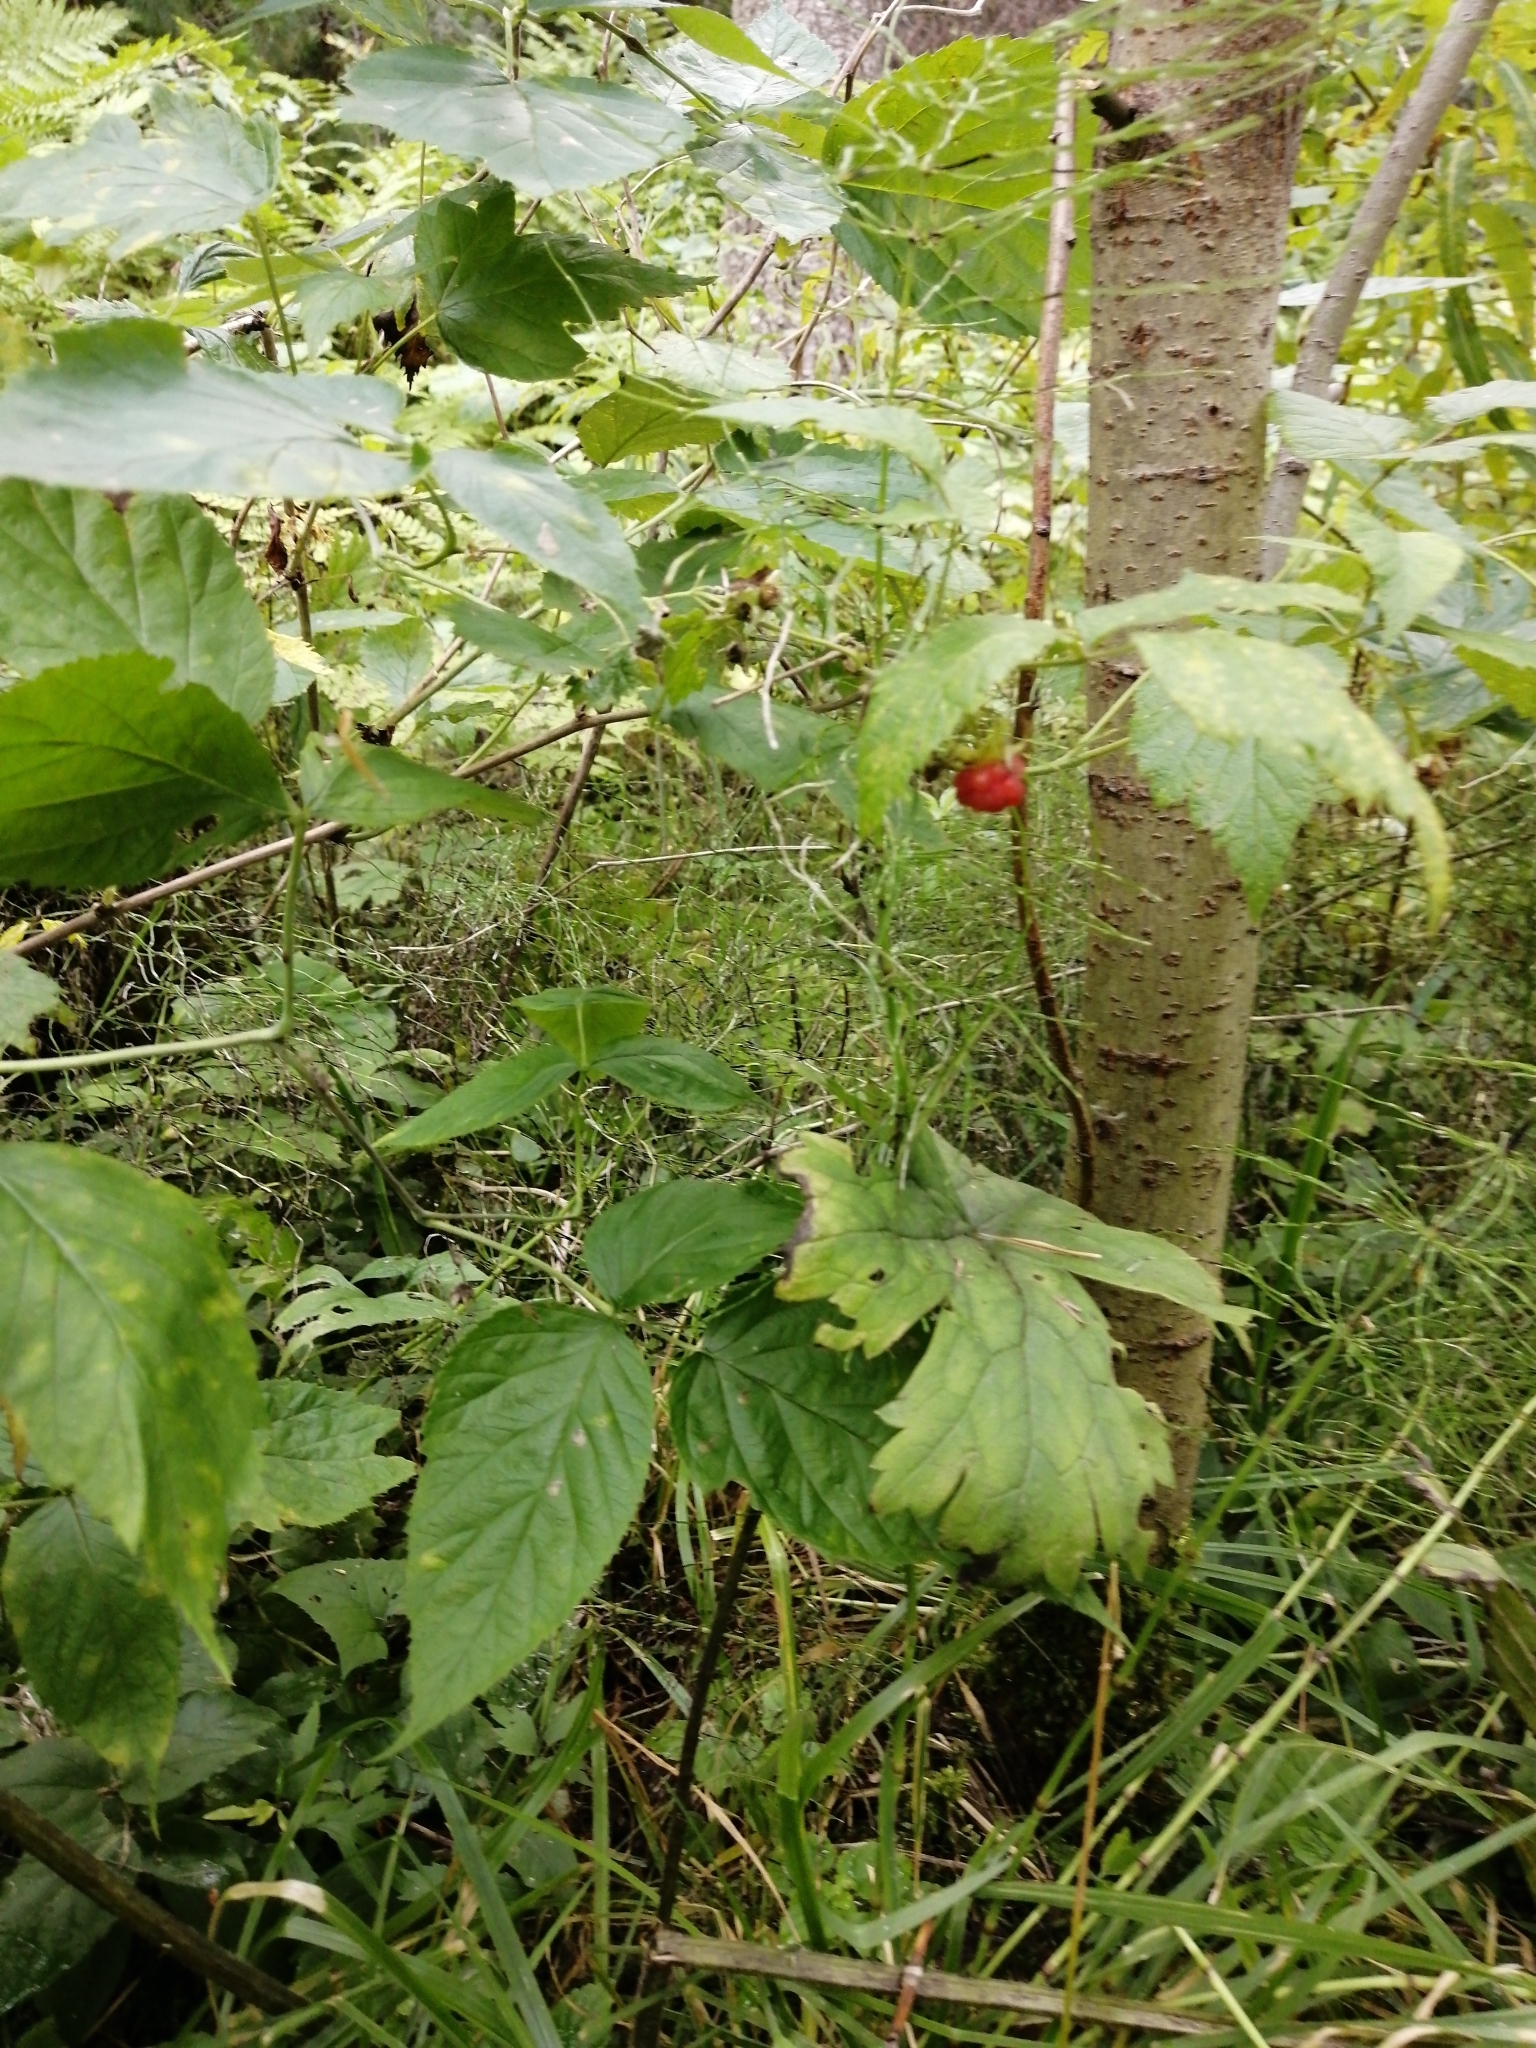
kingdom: Plantae
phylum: Tracheophyta
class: Magnoliopsida
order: Rosales
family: Rosaceae
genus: Rubus
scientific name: Rubus idaeus
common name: Raspberry
